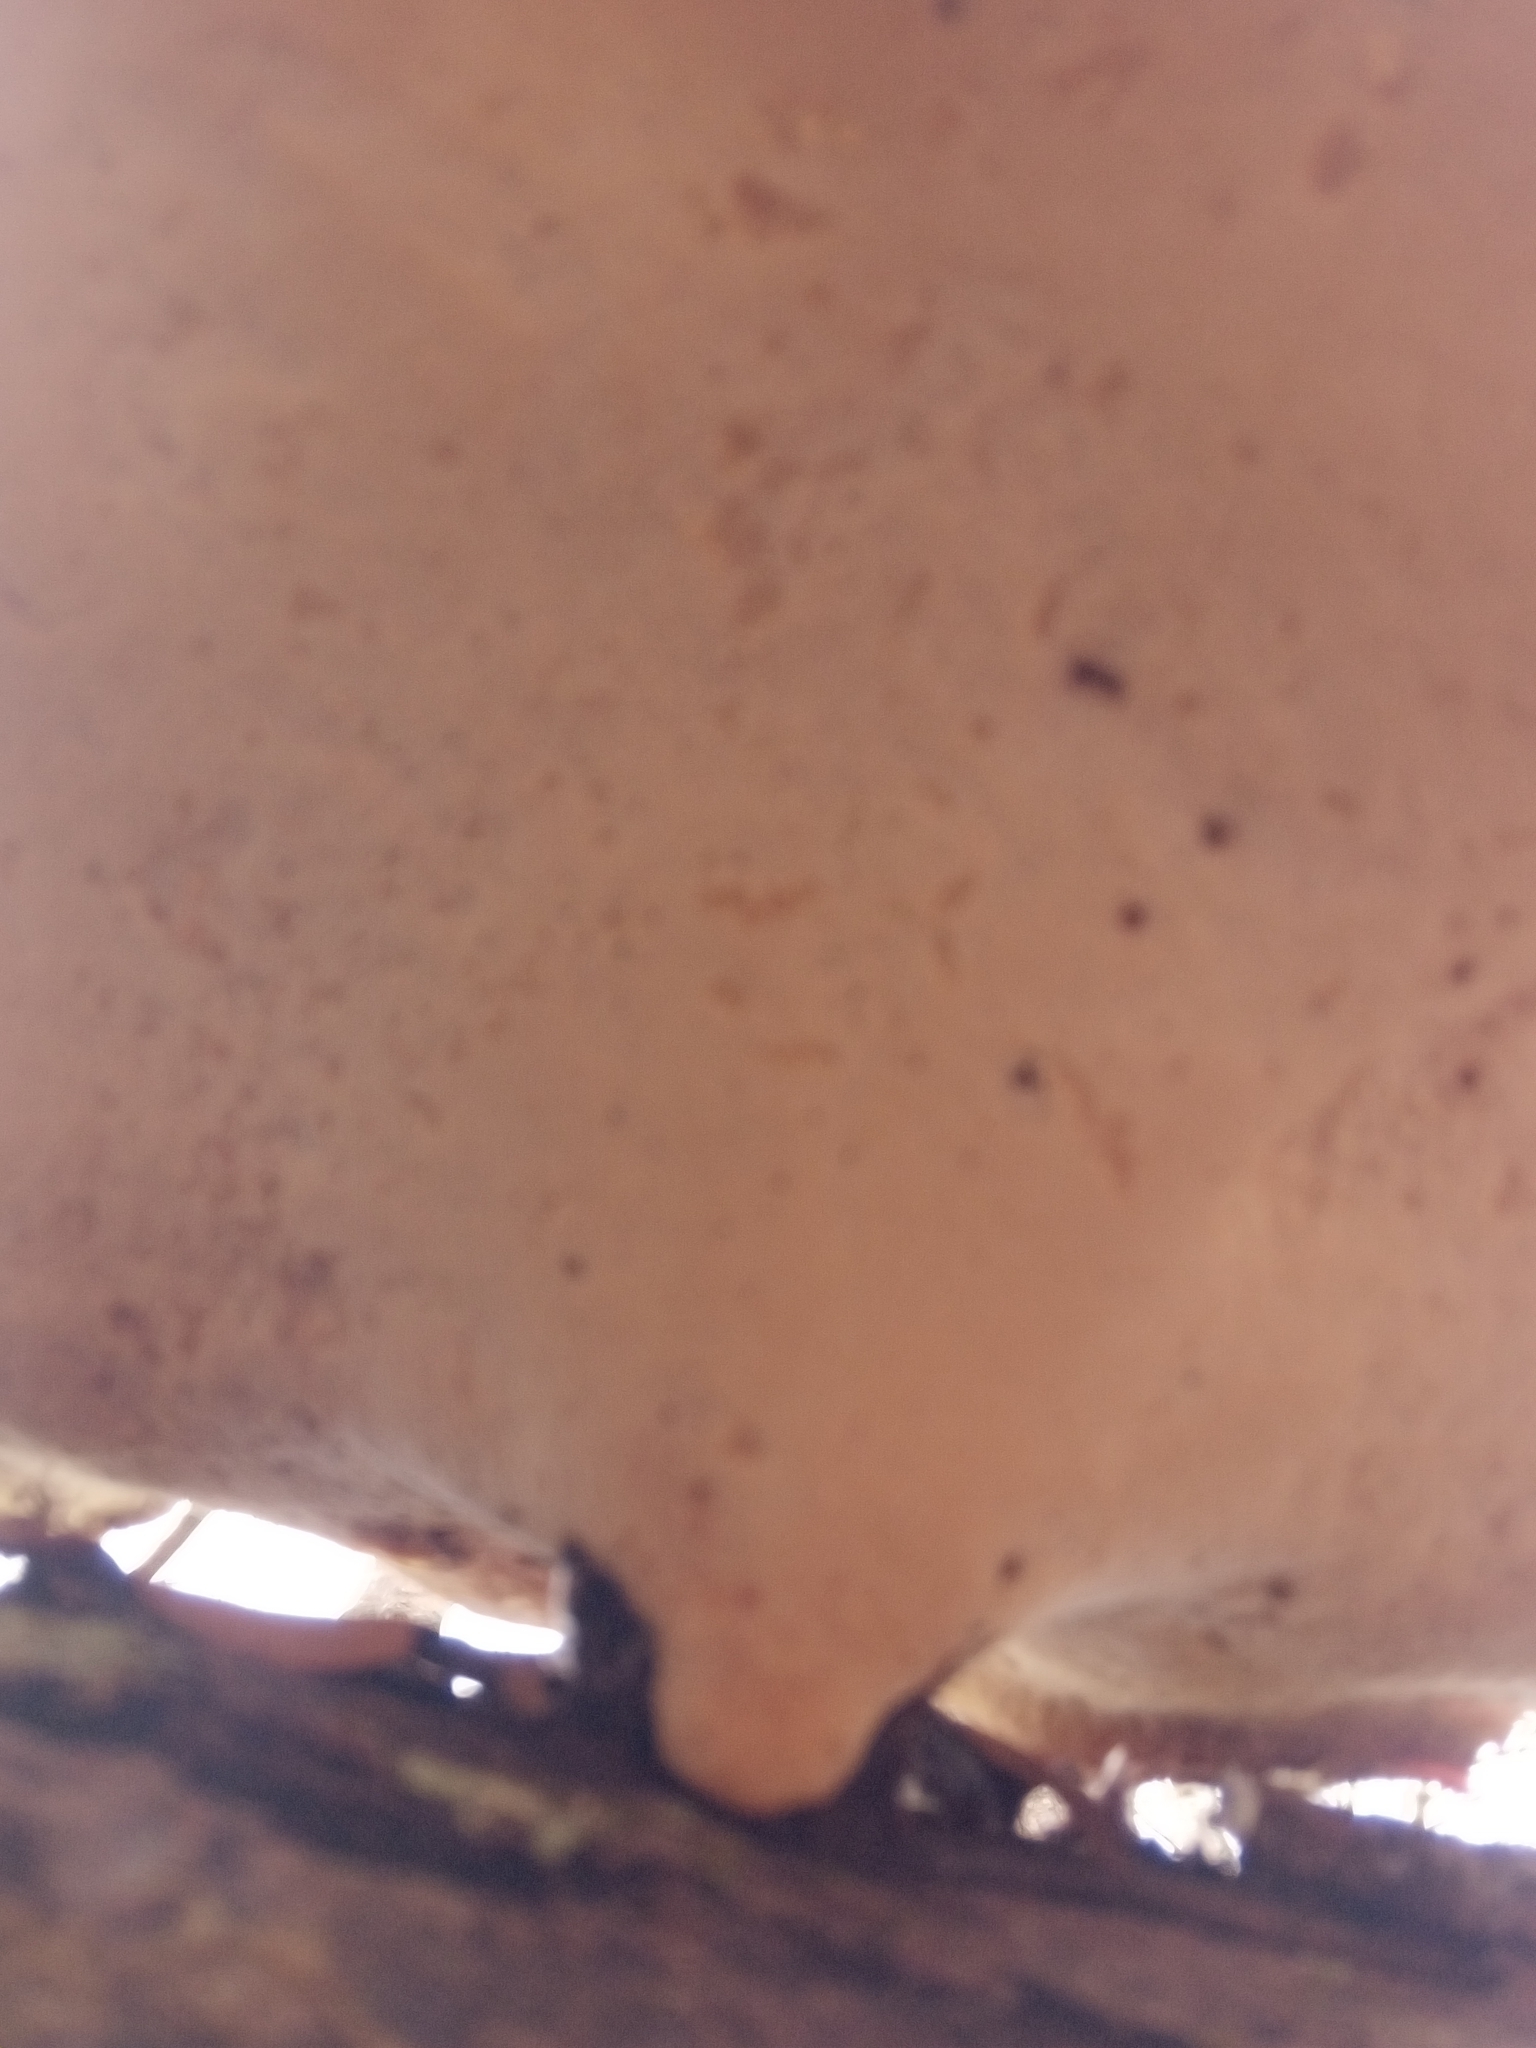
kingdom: Fungi
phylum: Basidiomycota
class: Agaricomycetes
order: Polyporales
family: Polyporaceae
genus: Picipes
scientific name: Picipes badius
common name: Bay polypore
